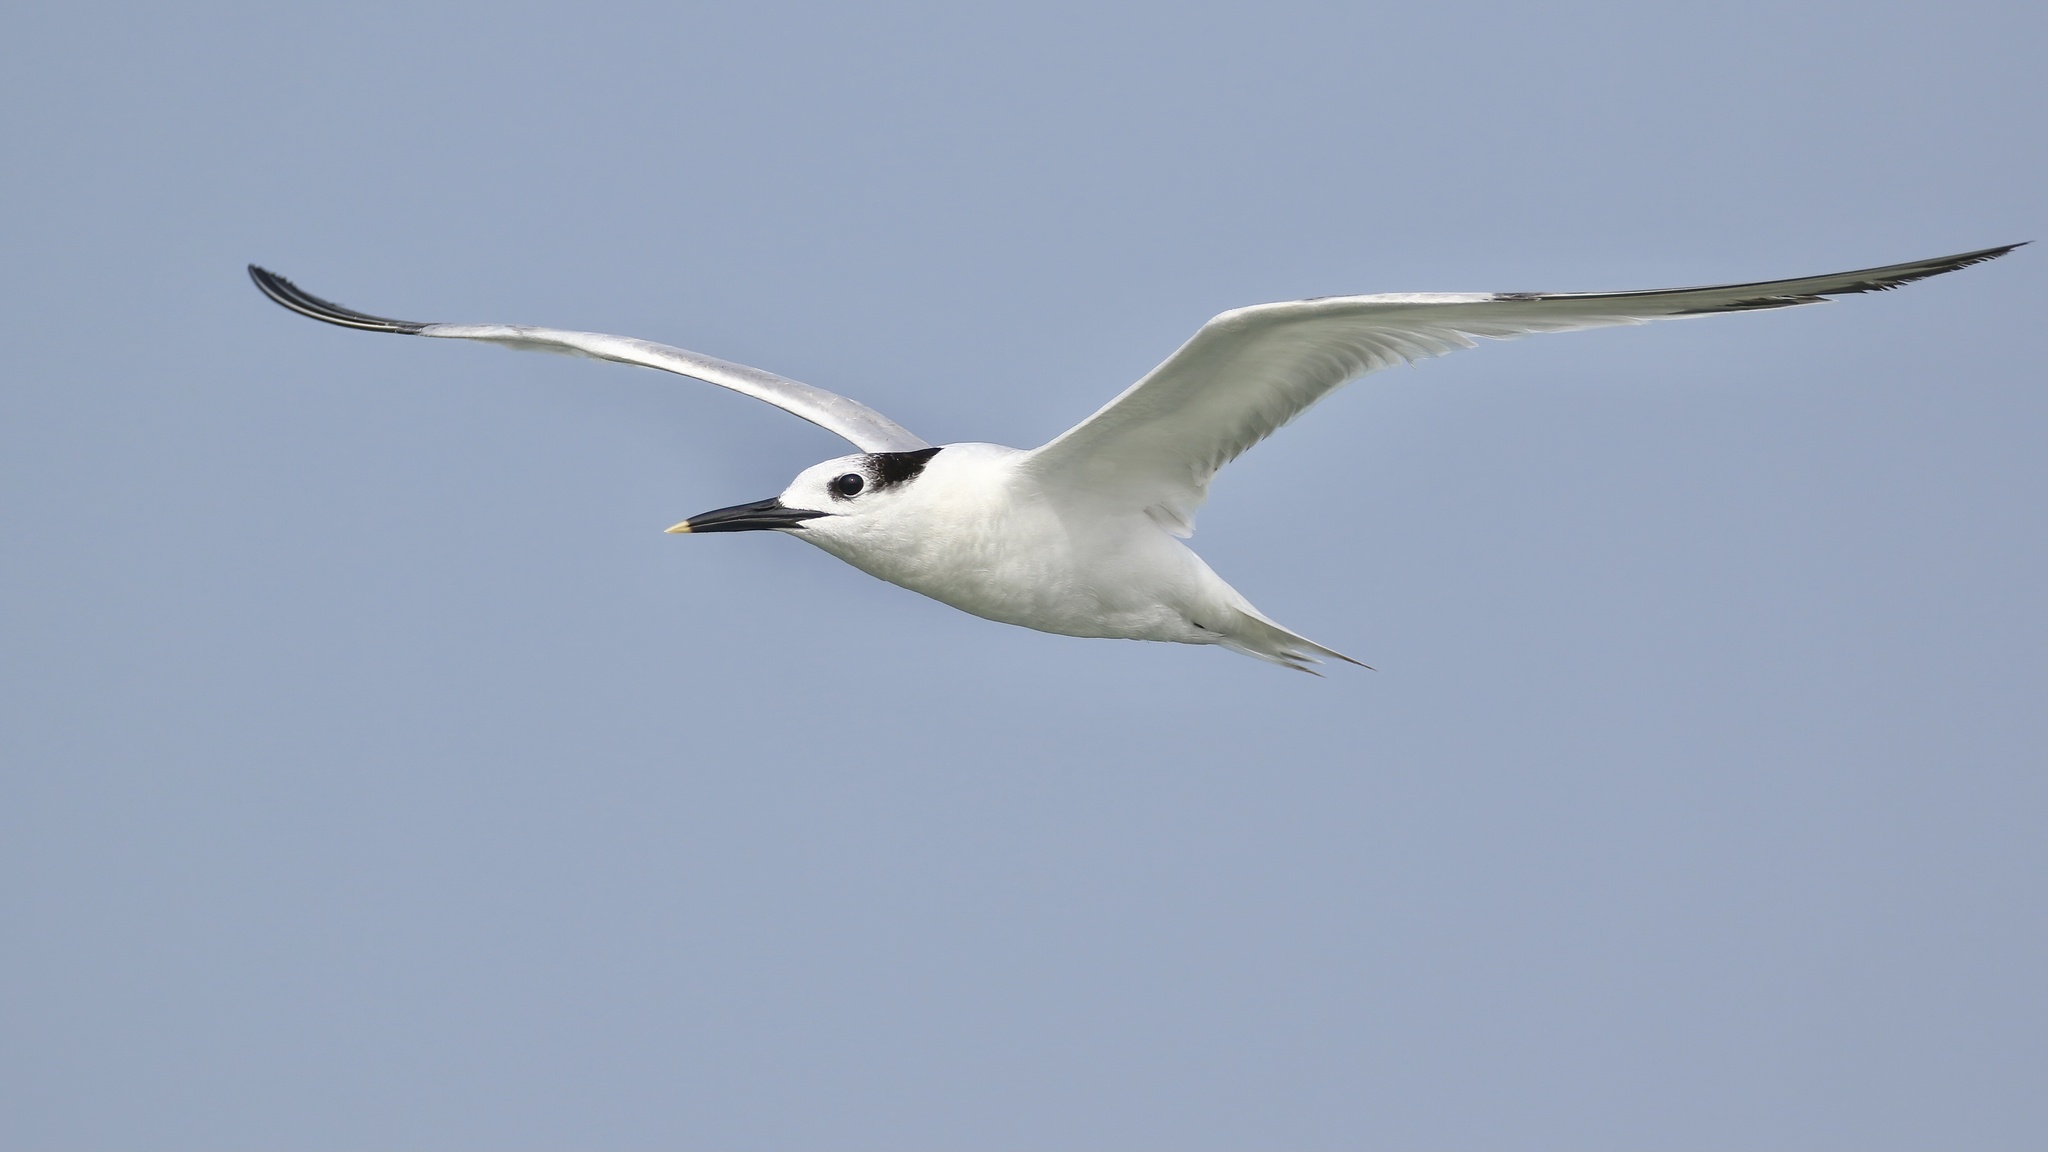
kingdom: Animalia
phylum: Chordata
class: Aves
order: Charadriiformes
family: Laridae
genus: Thalasseus
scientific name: Thalasseus sandvicensis
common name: Sandwich tern
